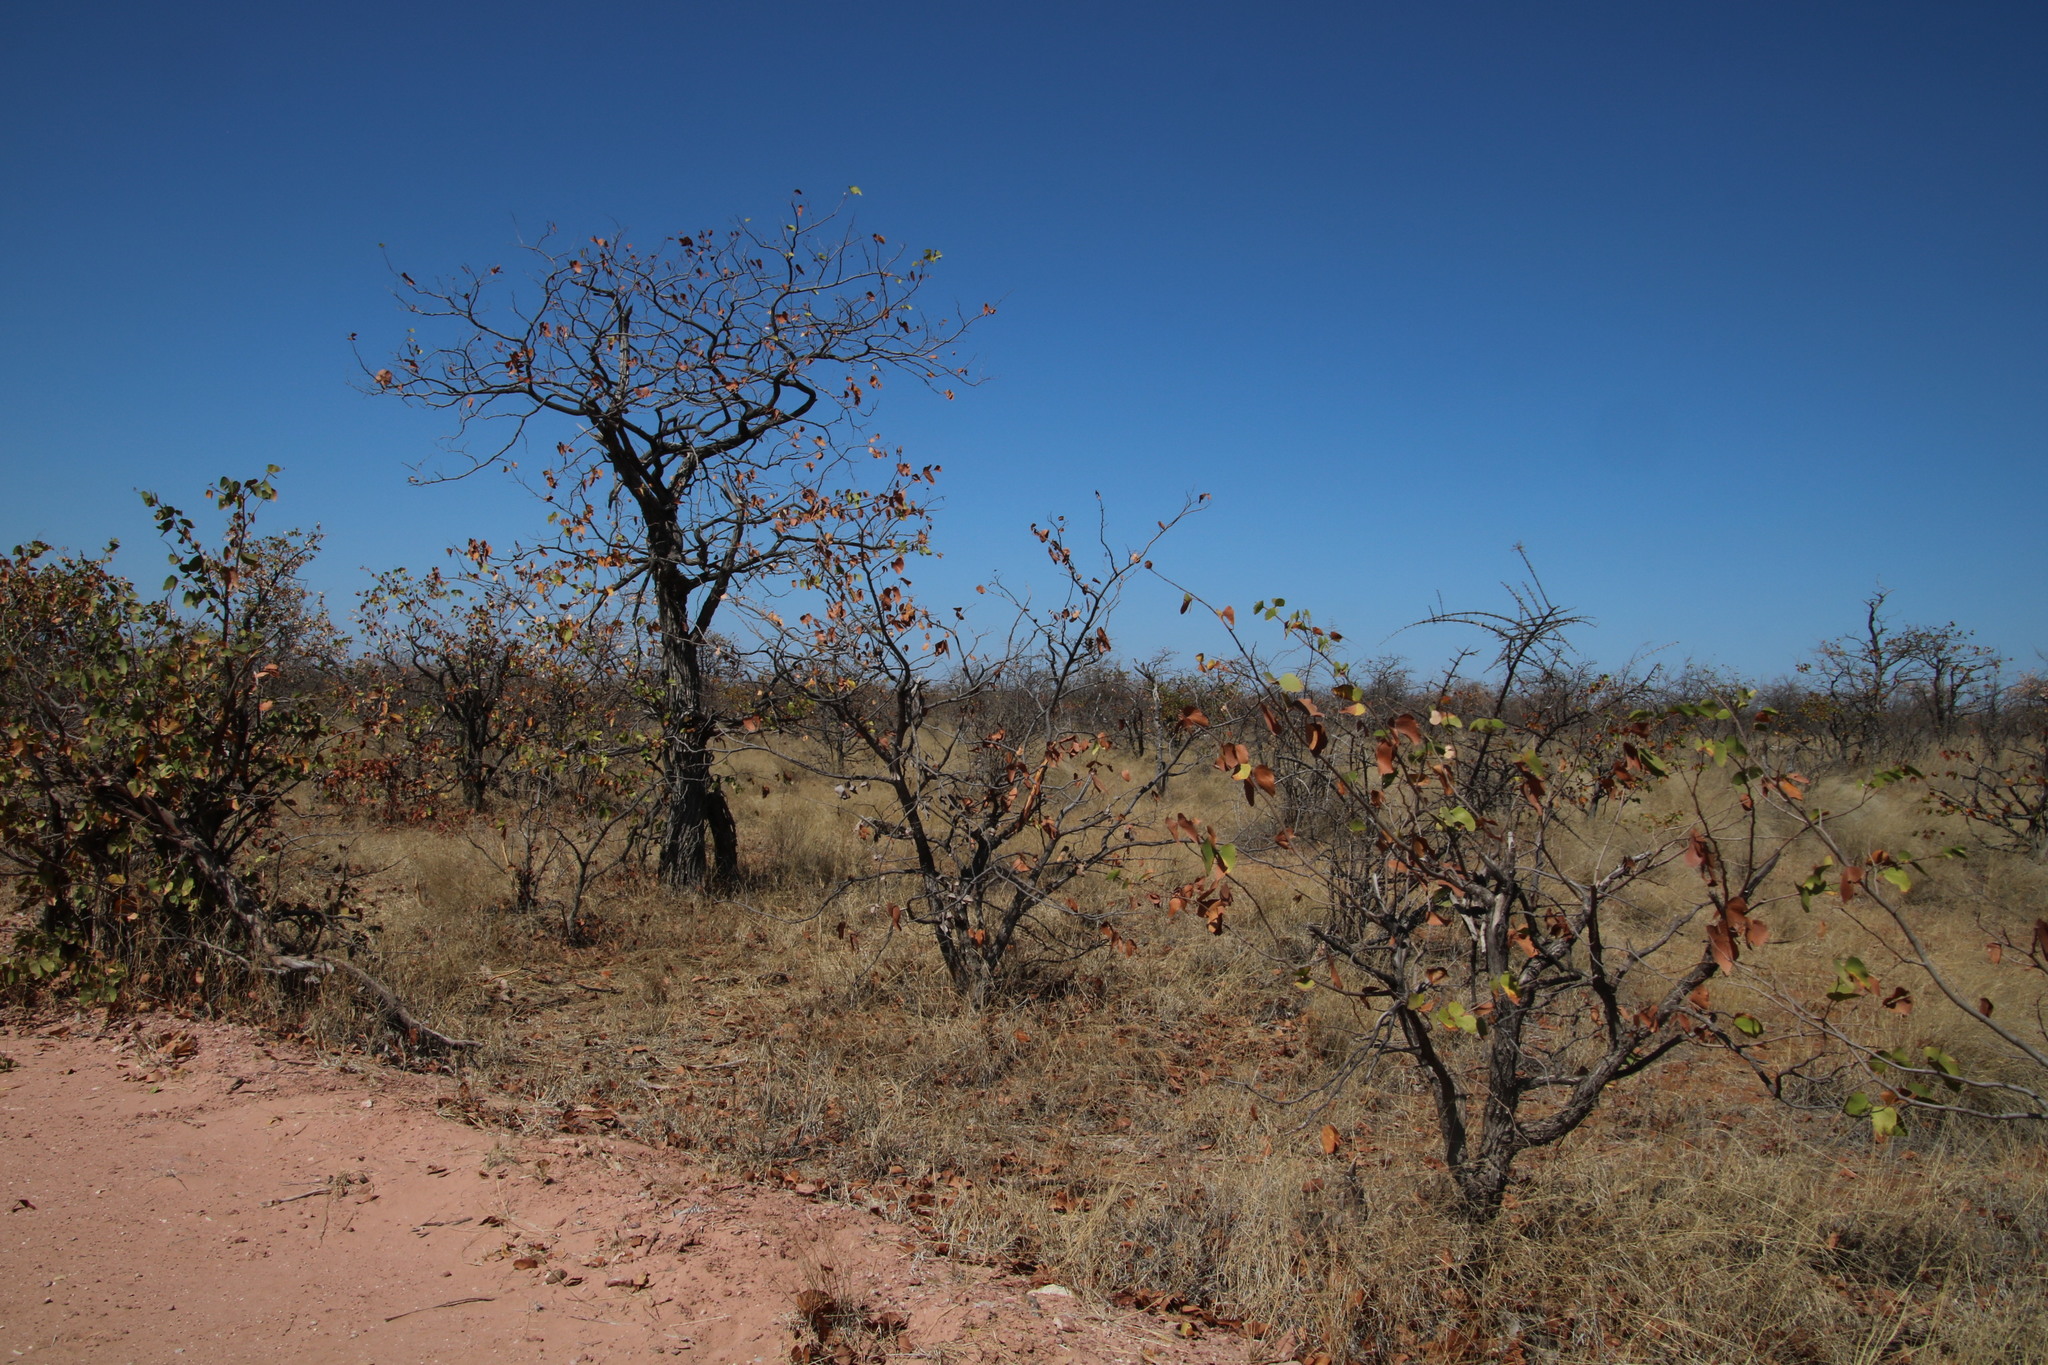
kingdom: Plantae
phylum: Tracheophyta
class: Magnoliopsida
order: Fabales
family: Fabaceae
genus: Colophospermum
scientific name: Colophospermum mopane
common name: Mopane
